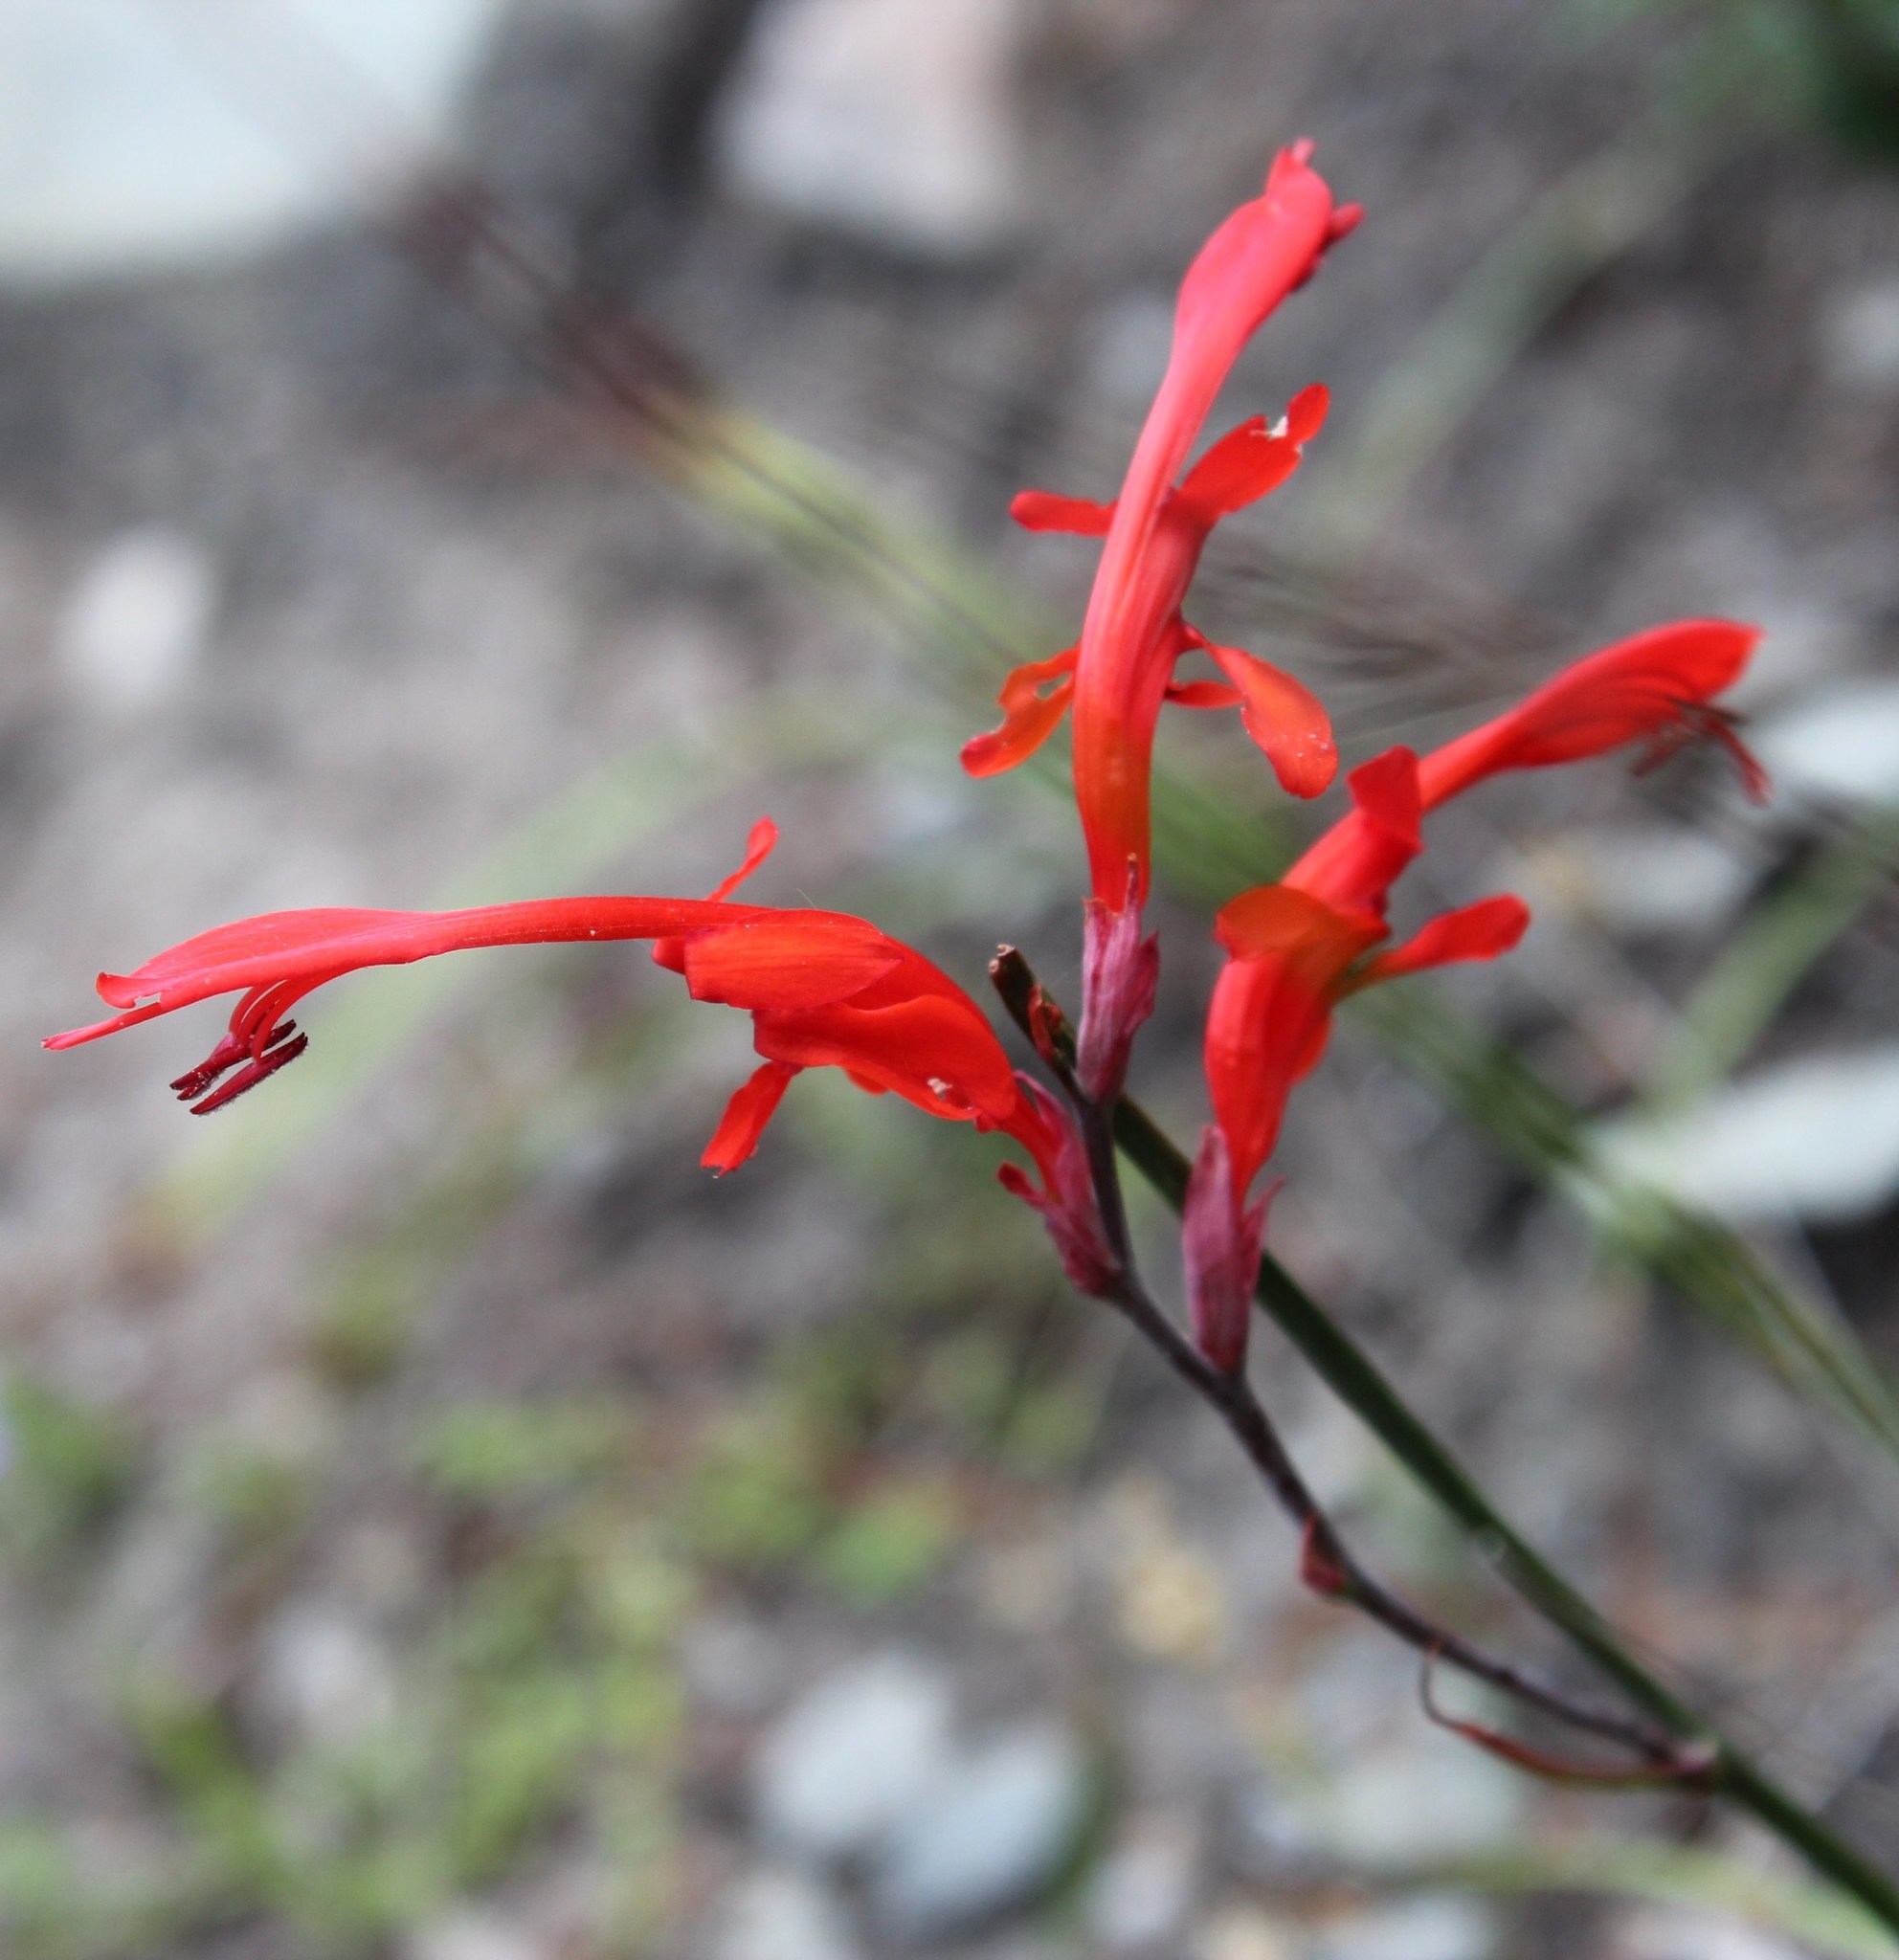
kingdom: Plantae
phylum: Tracheophyta
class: Liliopsida
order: Asparagales
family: Iridaceae
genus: Tritoniopsis
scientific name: Tritoniopsis caffra
